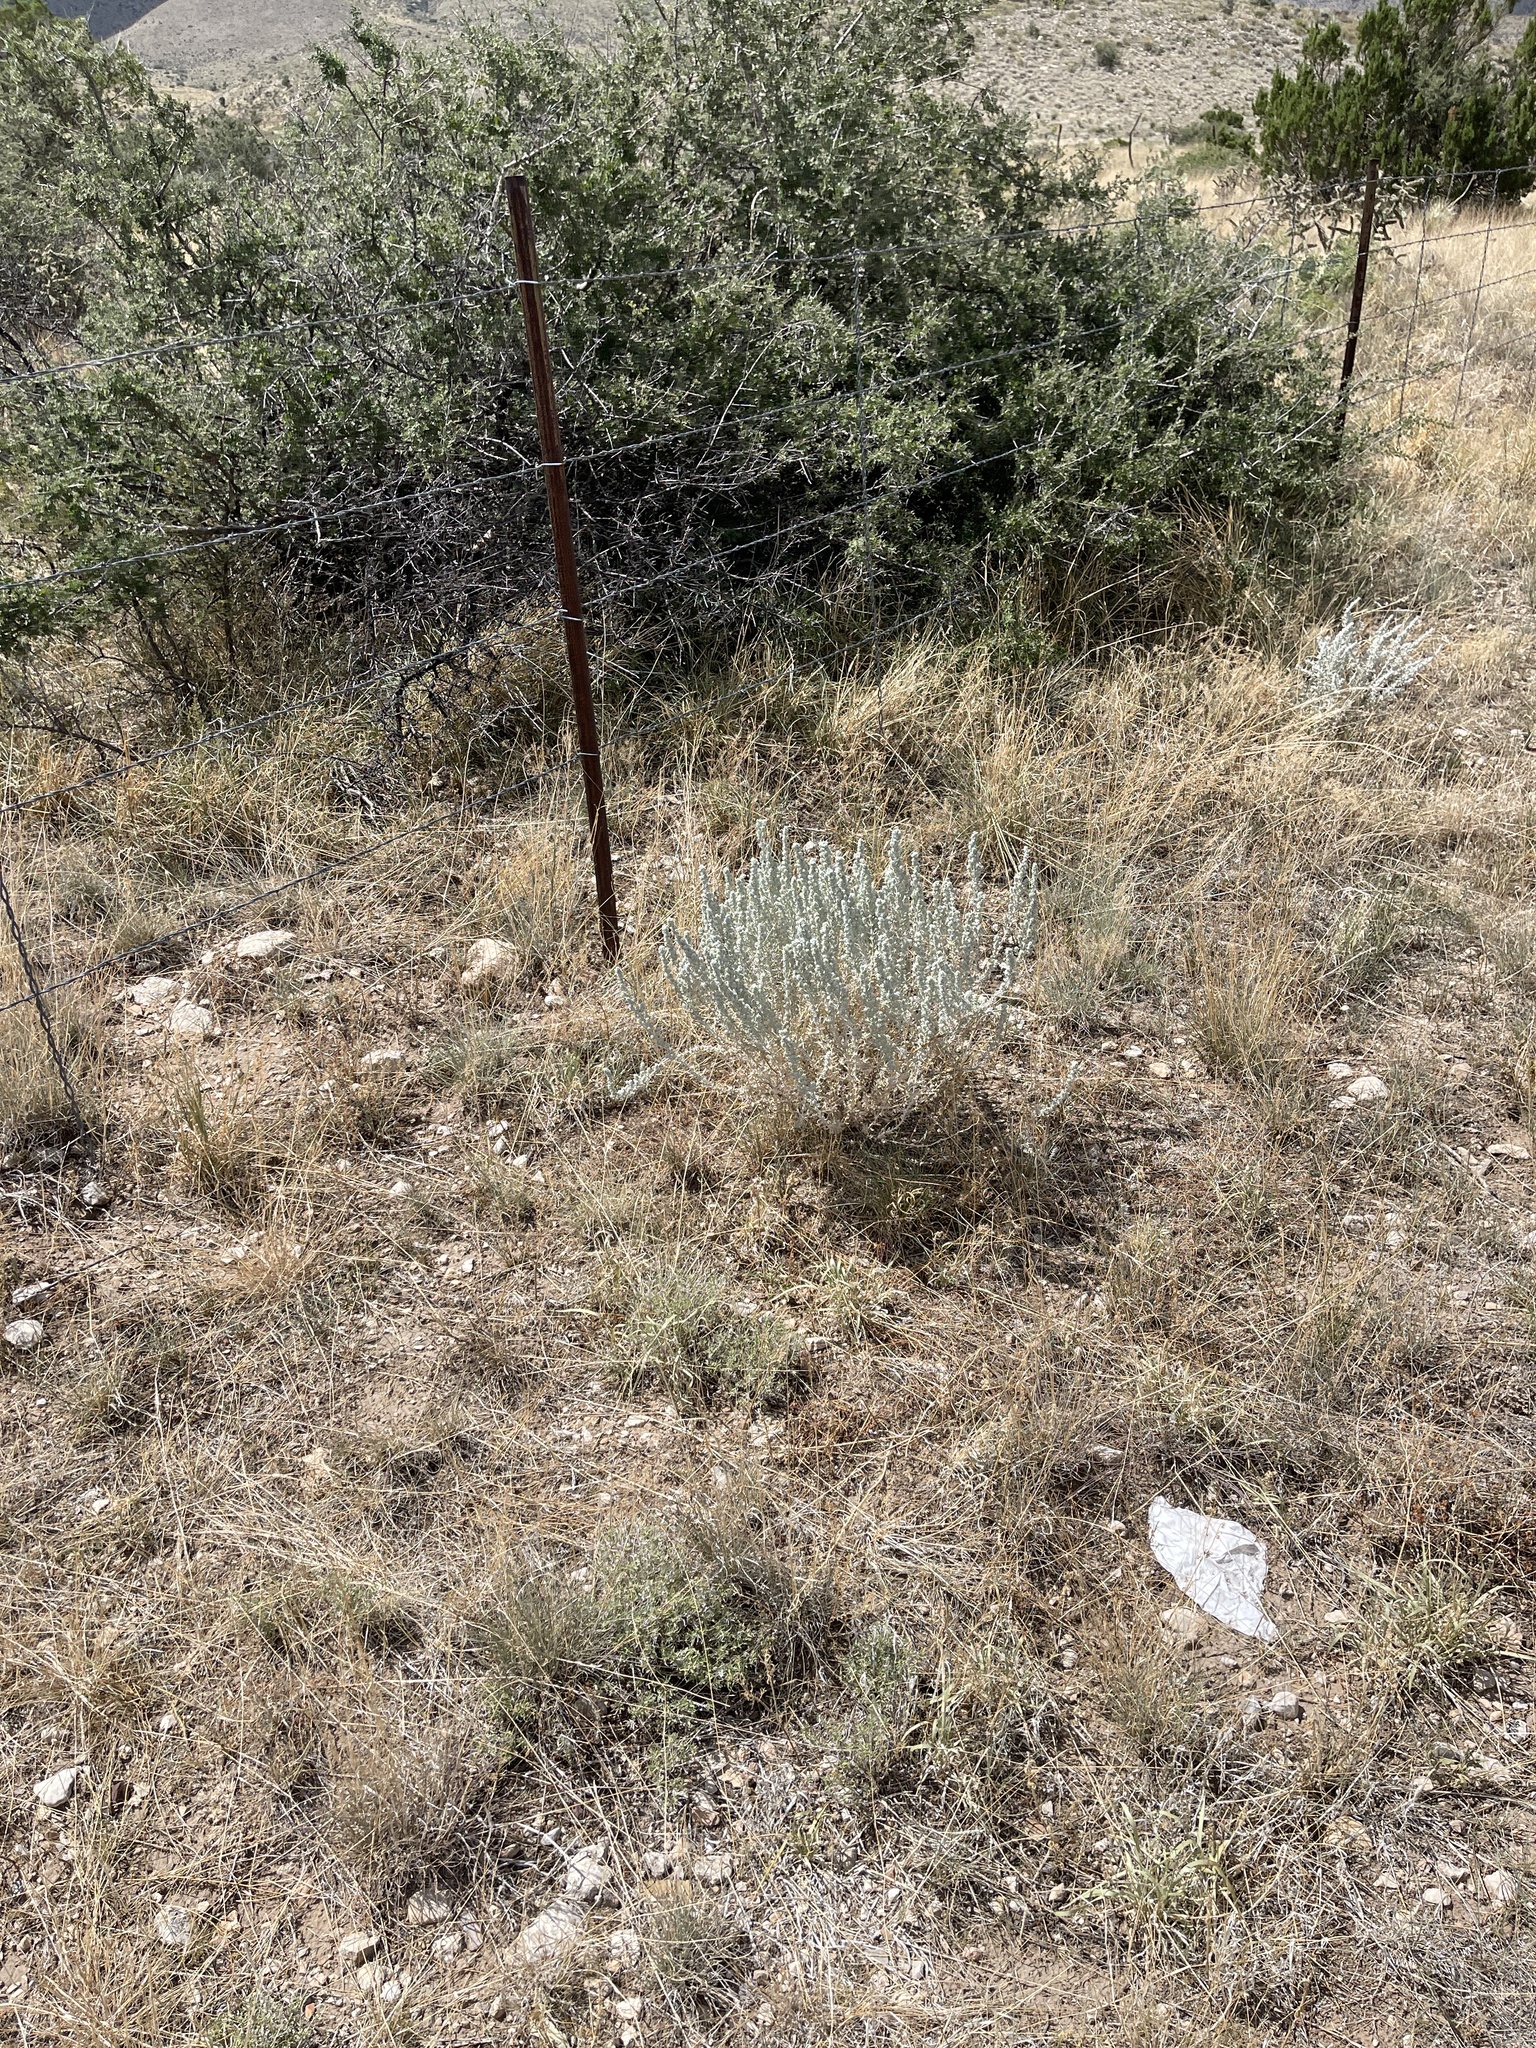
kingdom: Plantae
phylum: Tracheophyta
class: Magnoliopsida
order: Caryophyllales
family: Amaranthaceae
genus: Krascheninnikovia
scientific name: Krascheninnikovia lanata
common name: Winterfat
